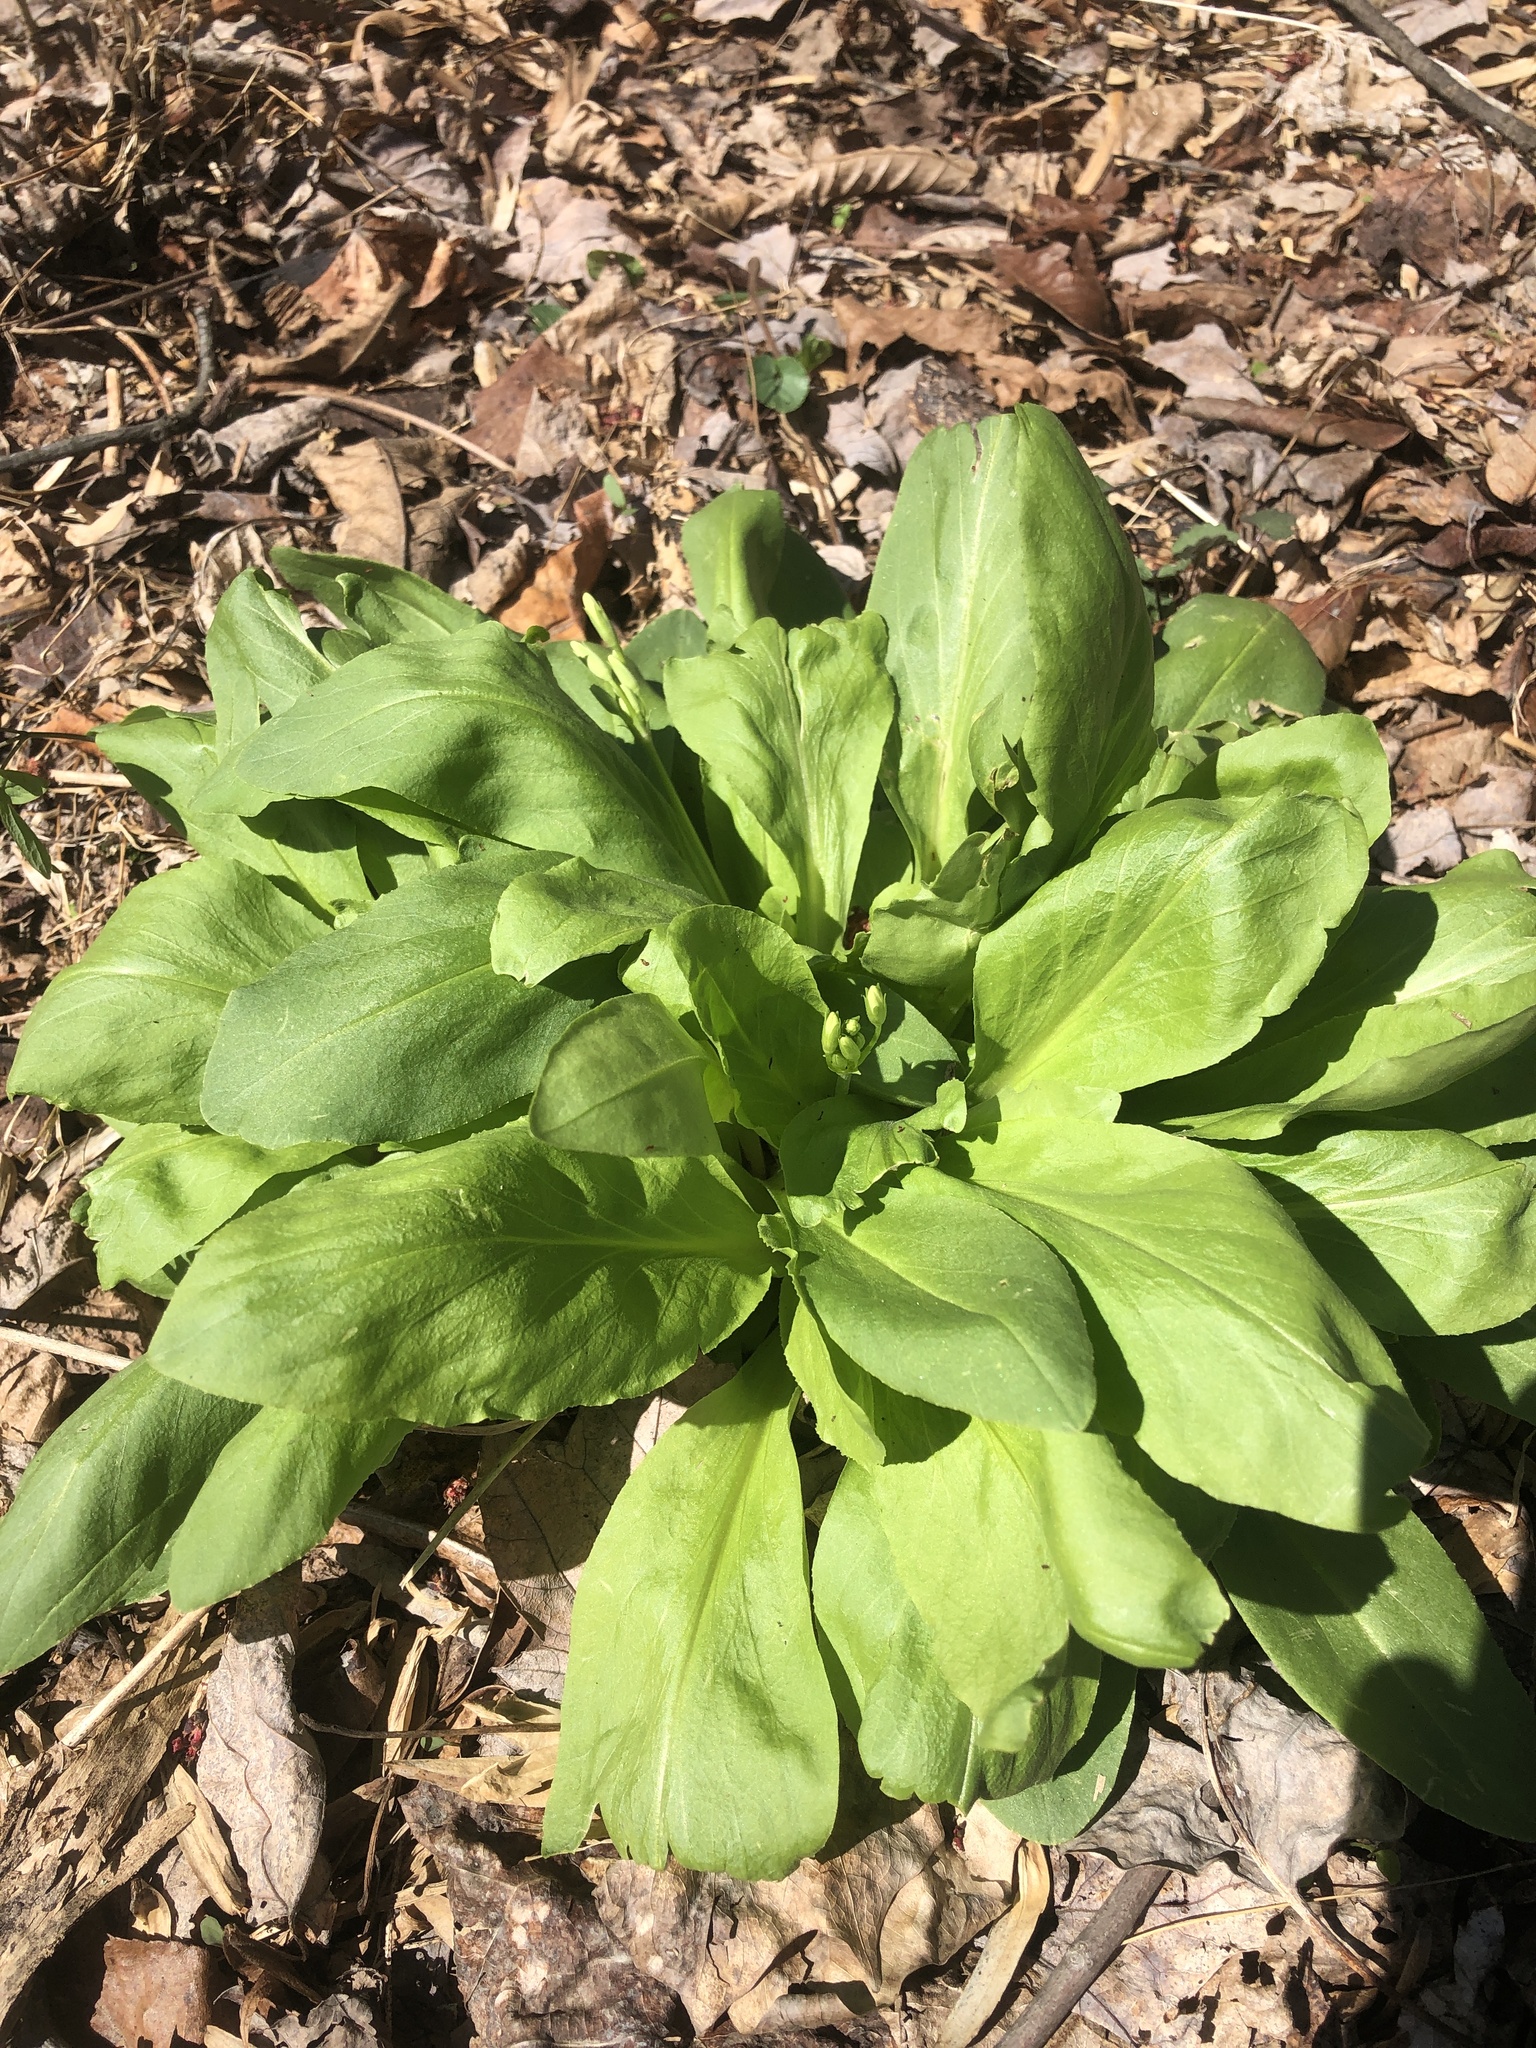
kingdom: Plantae
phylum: Tracheophyta
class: Magnoliopsida
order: Ericales
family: Primulaceae
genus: Dodecatheon
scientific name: Dodecatheon meadia
